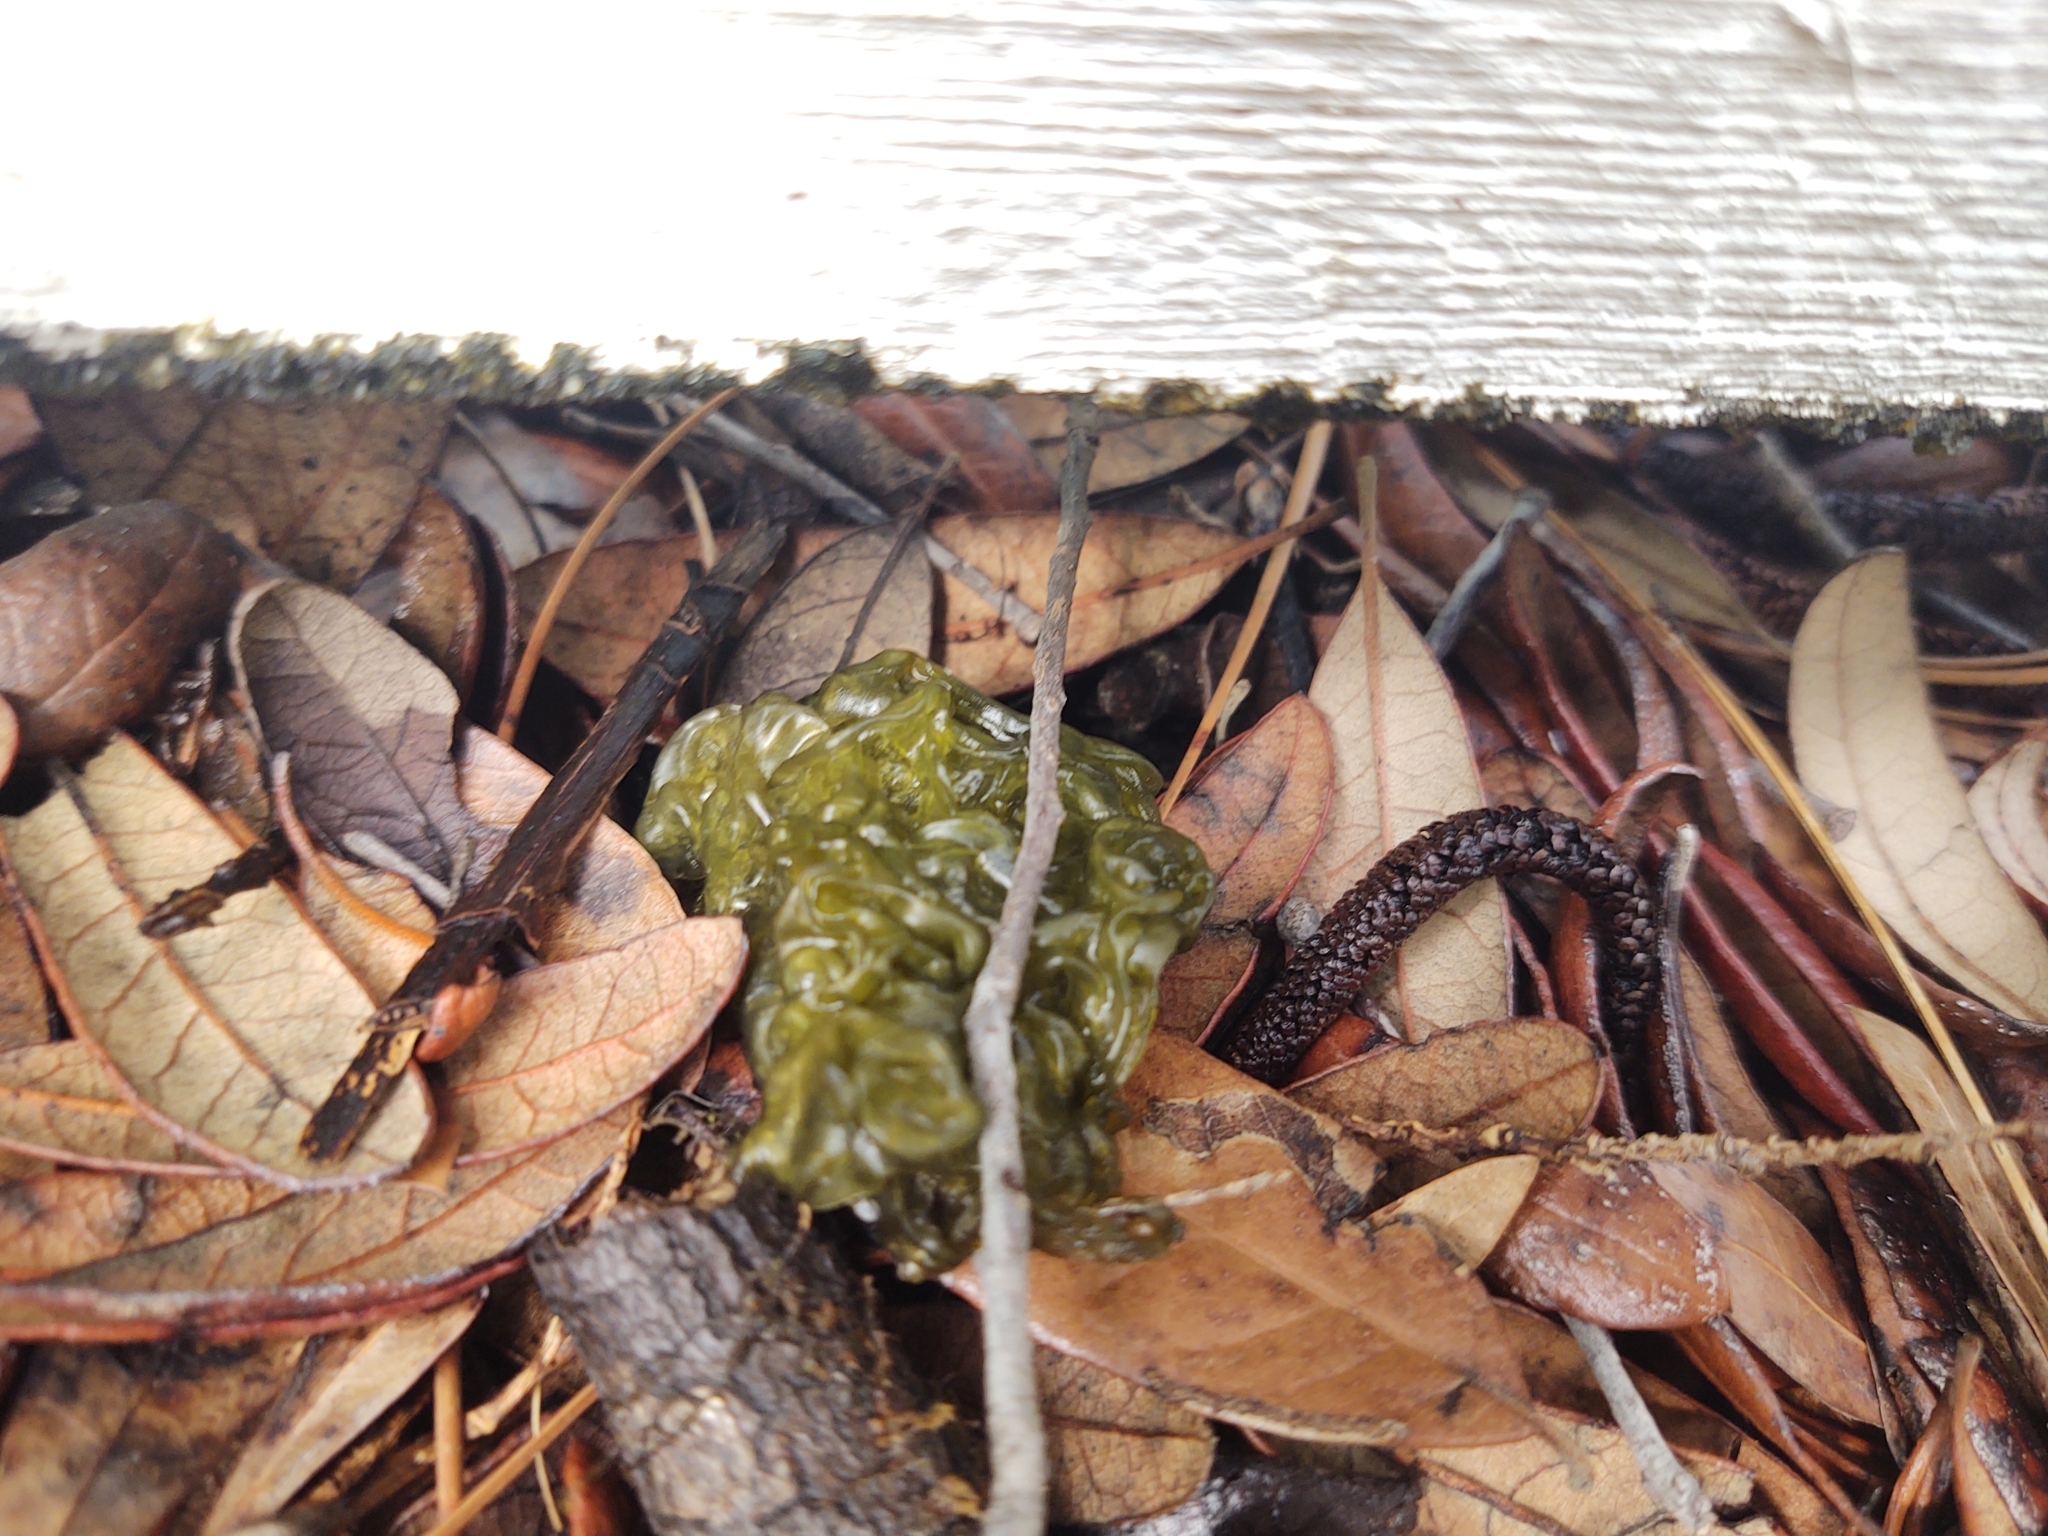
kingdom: Bacteria
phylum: Cyanobacteria
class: Cyanobacteriia
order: Cyanobacteriales
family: Nostocaceae
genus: Nostoc
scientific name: Nostoc commune
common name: Star jelly
